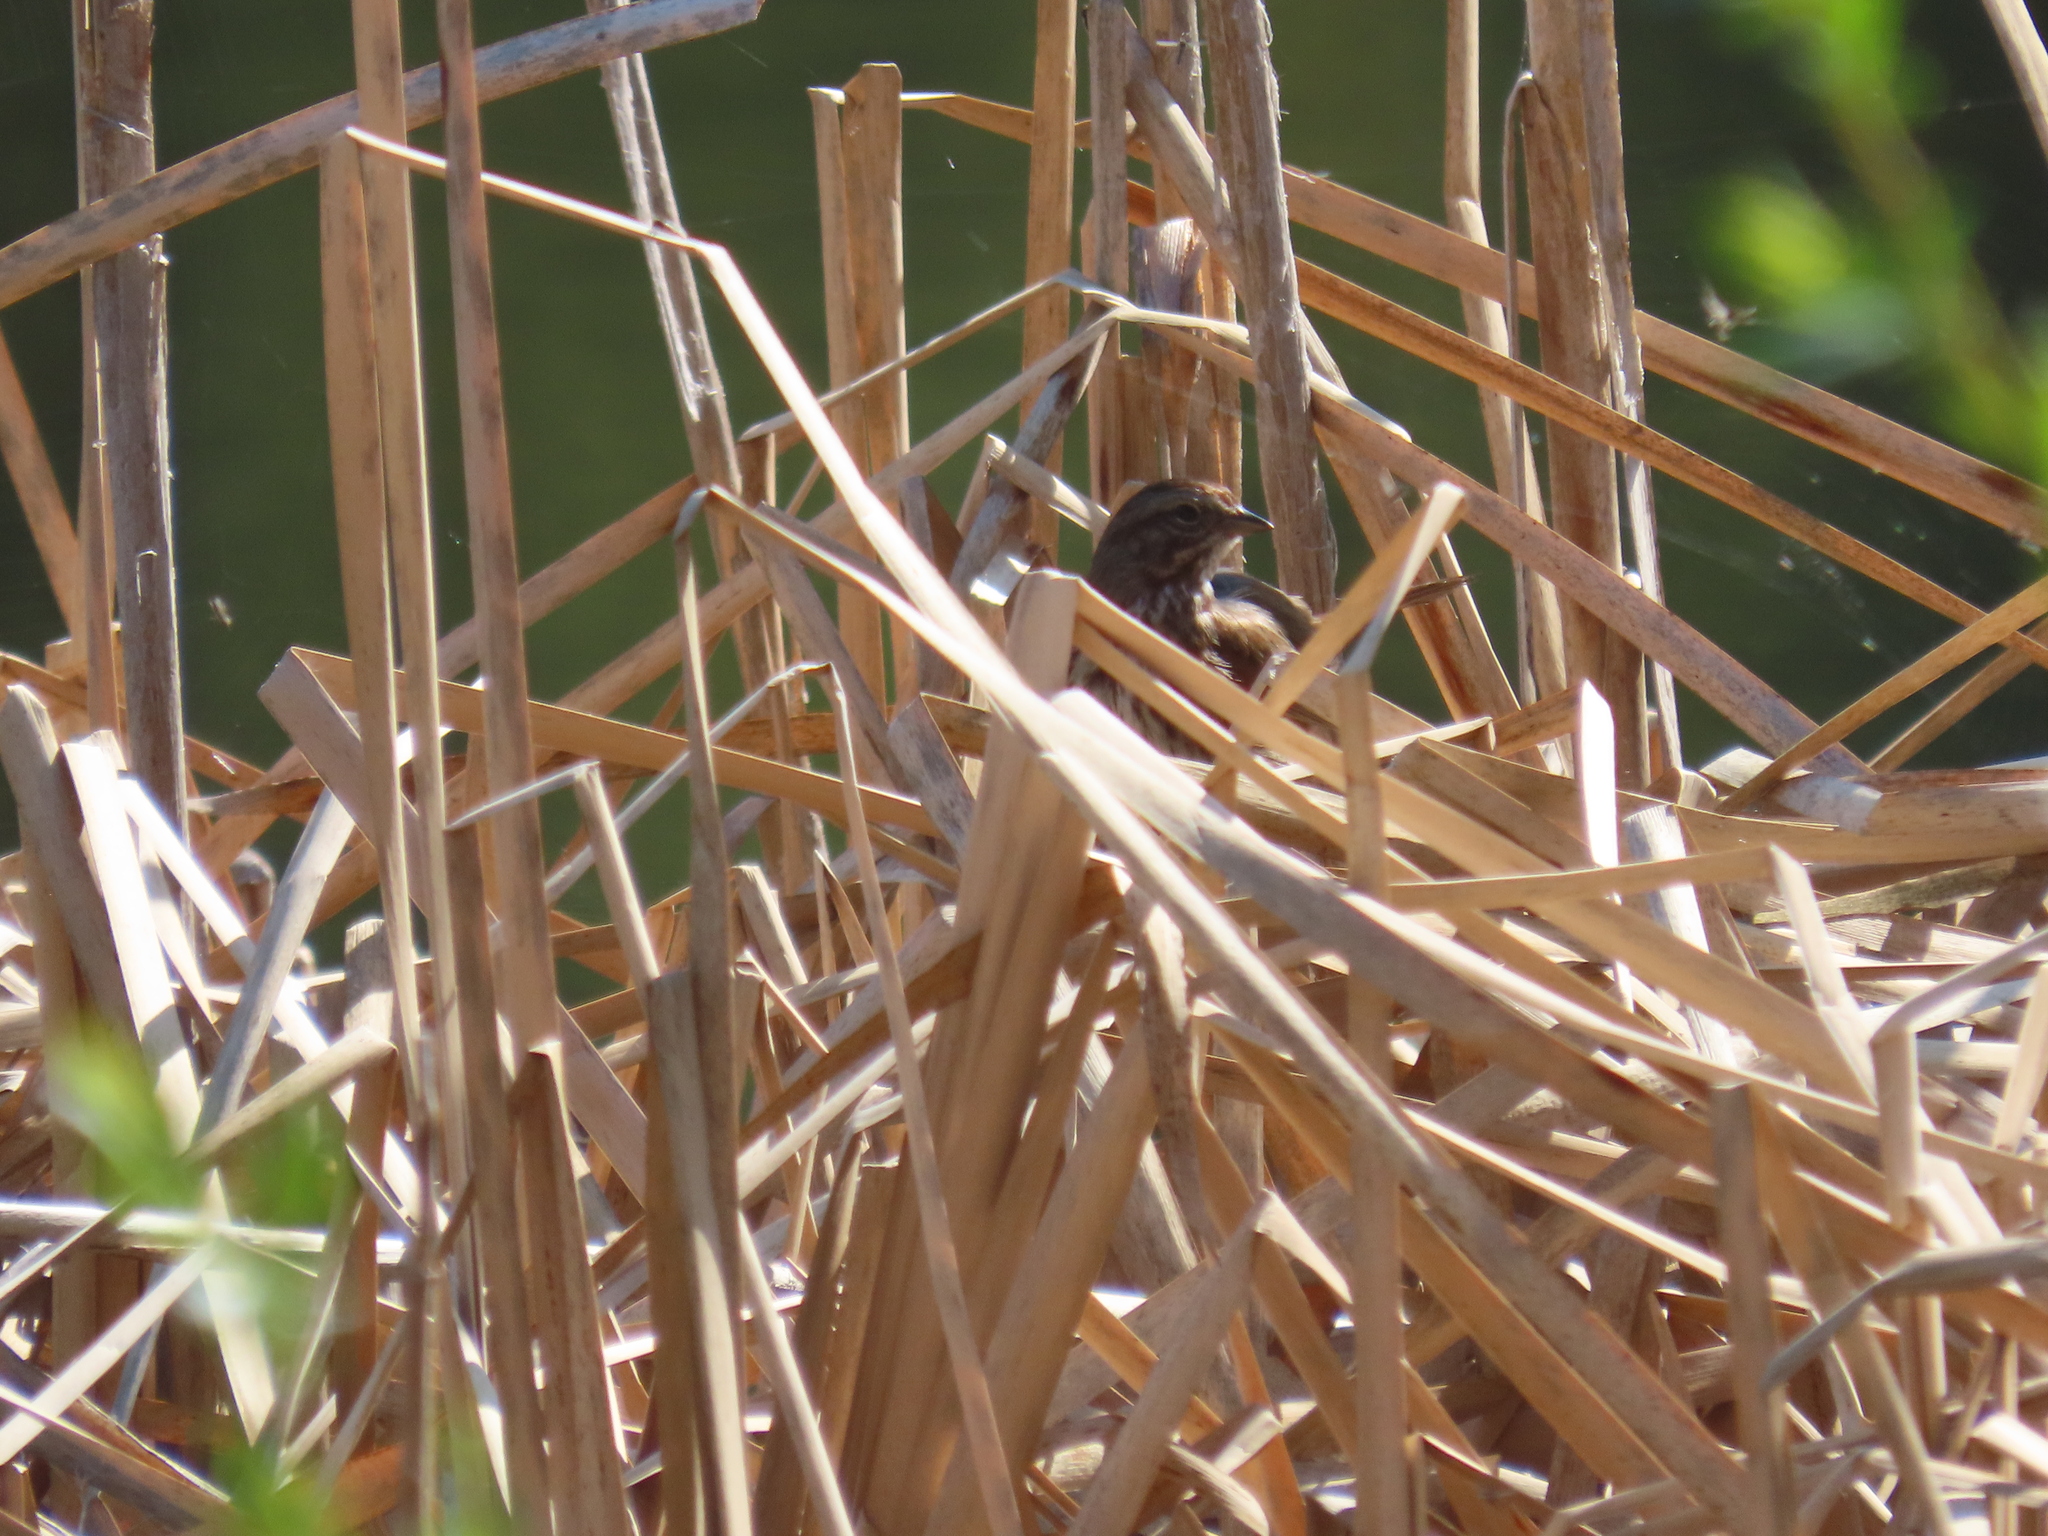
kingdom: Animalia
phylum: Chordata
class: Aves
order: Passeriformes
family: Passerellidae
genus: Melospiza
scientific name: Melospiza melodia
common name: Song sparrow
